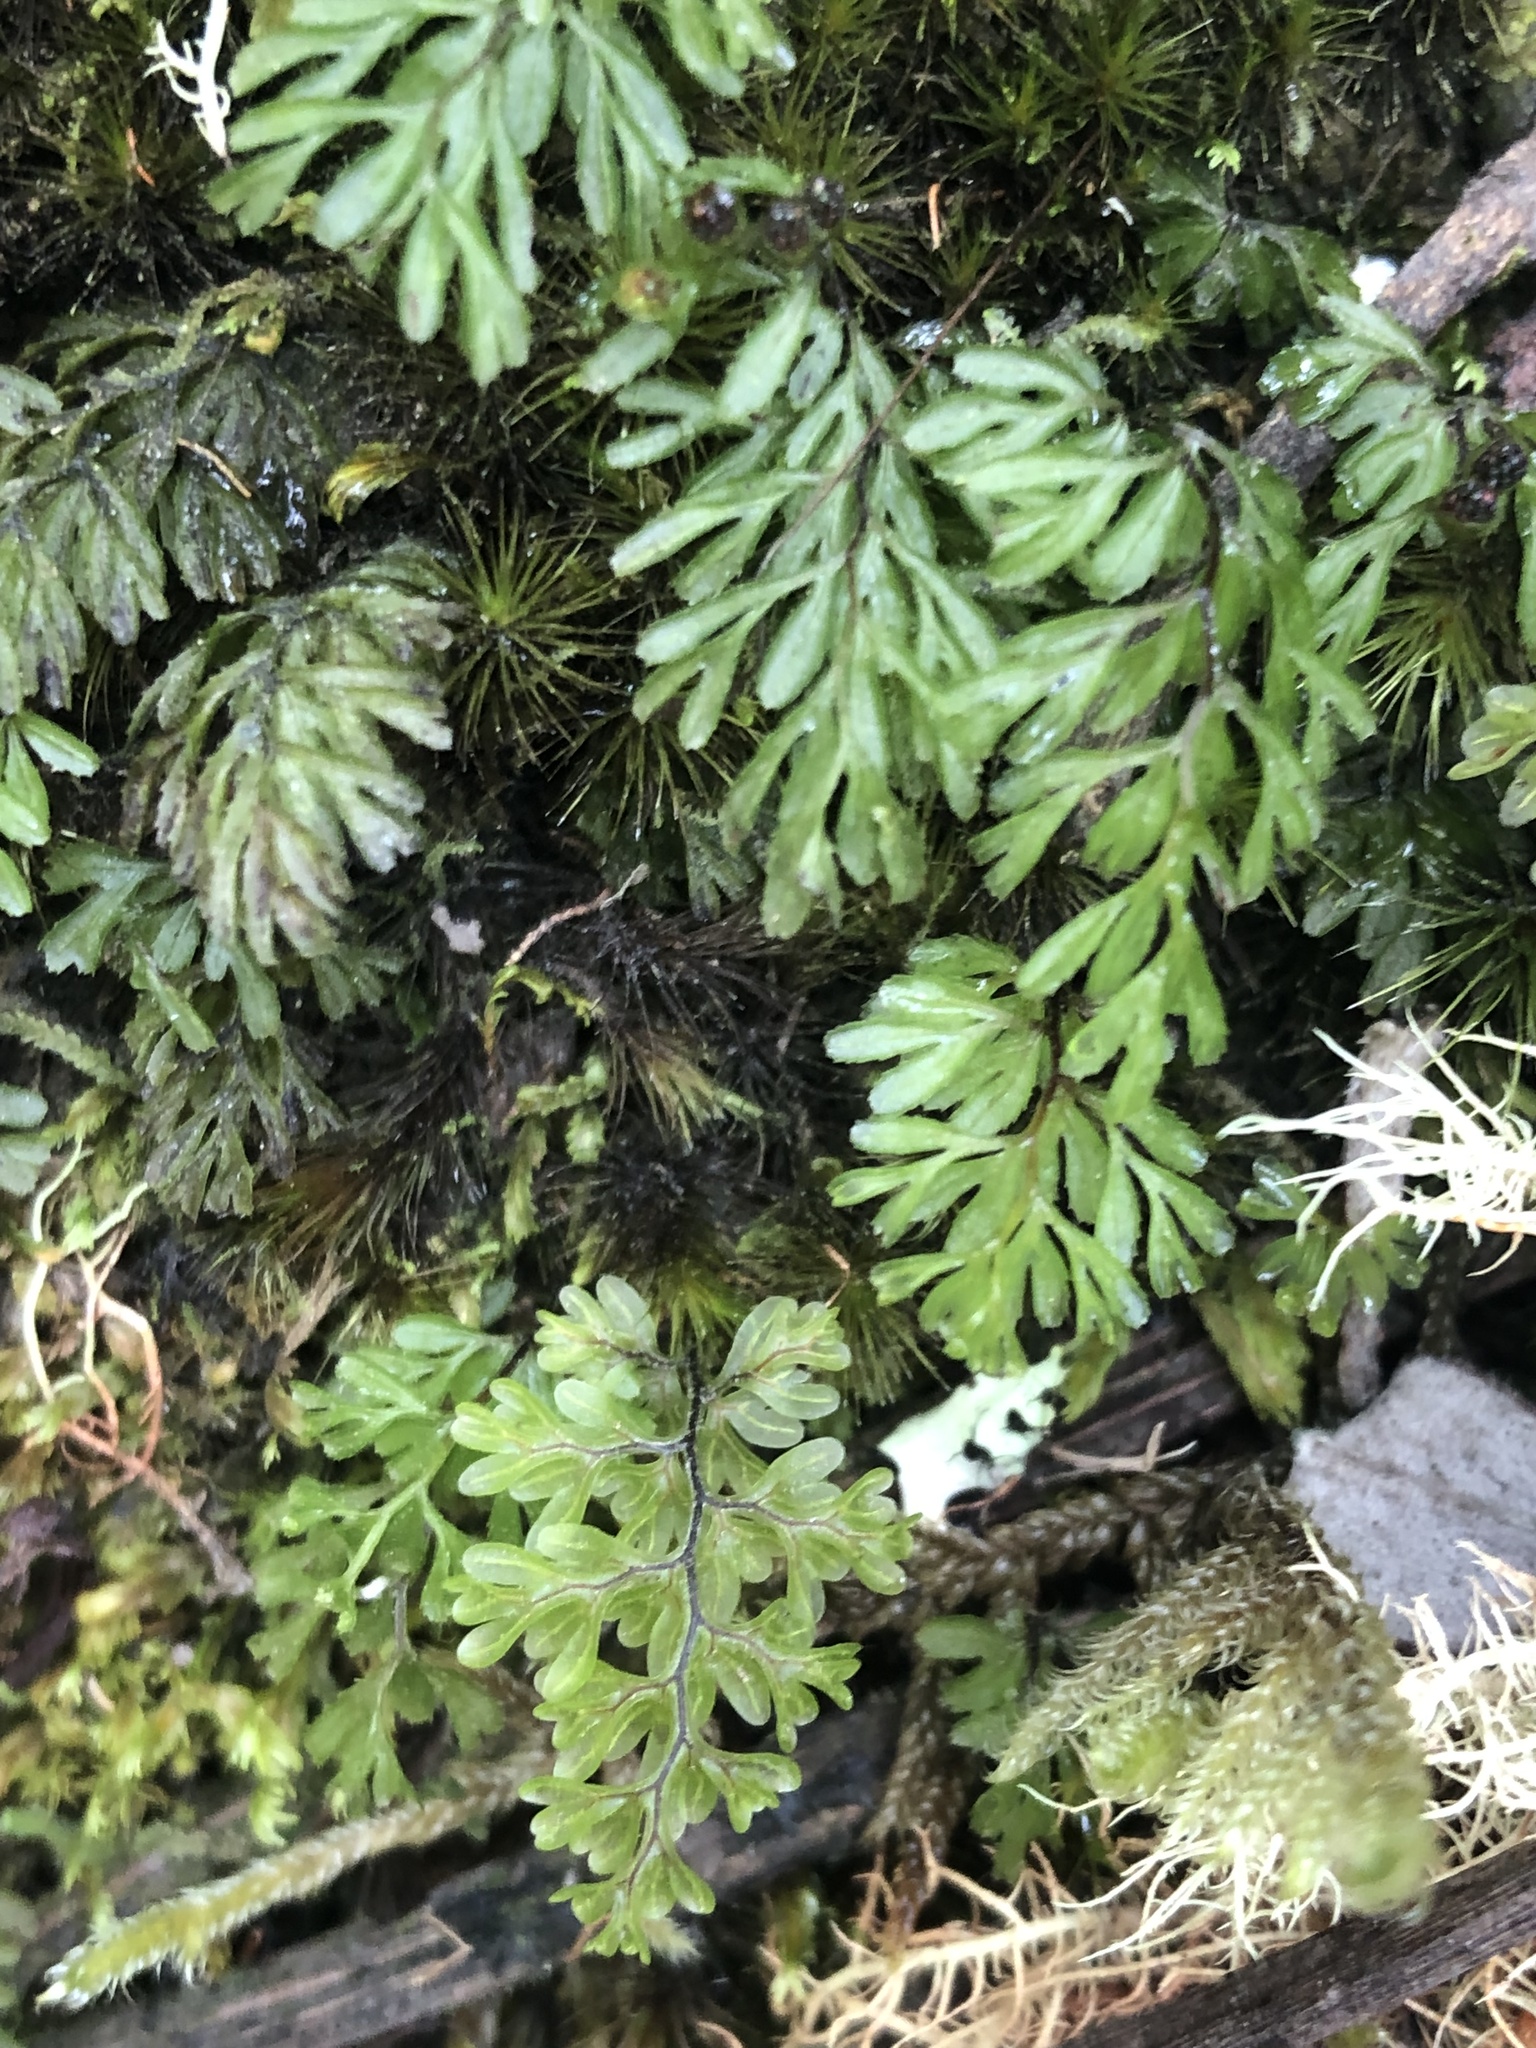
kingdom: Plantae
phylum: Tracheophyta
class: Polypodiopsida
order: Hymenophyllales
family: Hymenophyllaceae
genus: Hymenophyllum
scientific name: Hymenophyllum cupressiforme
